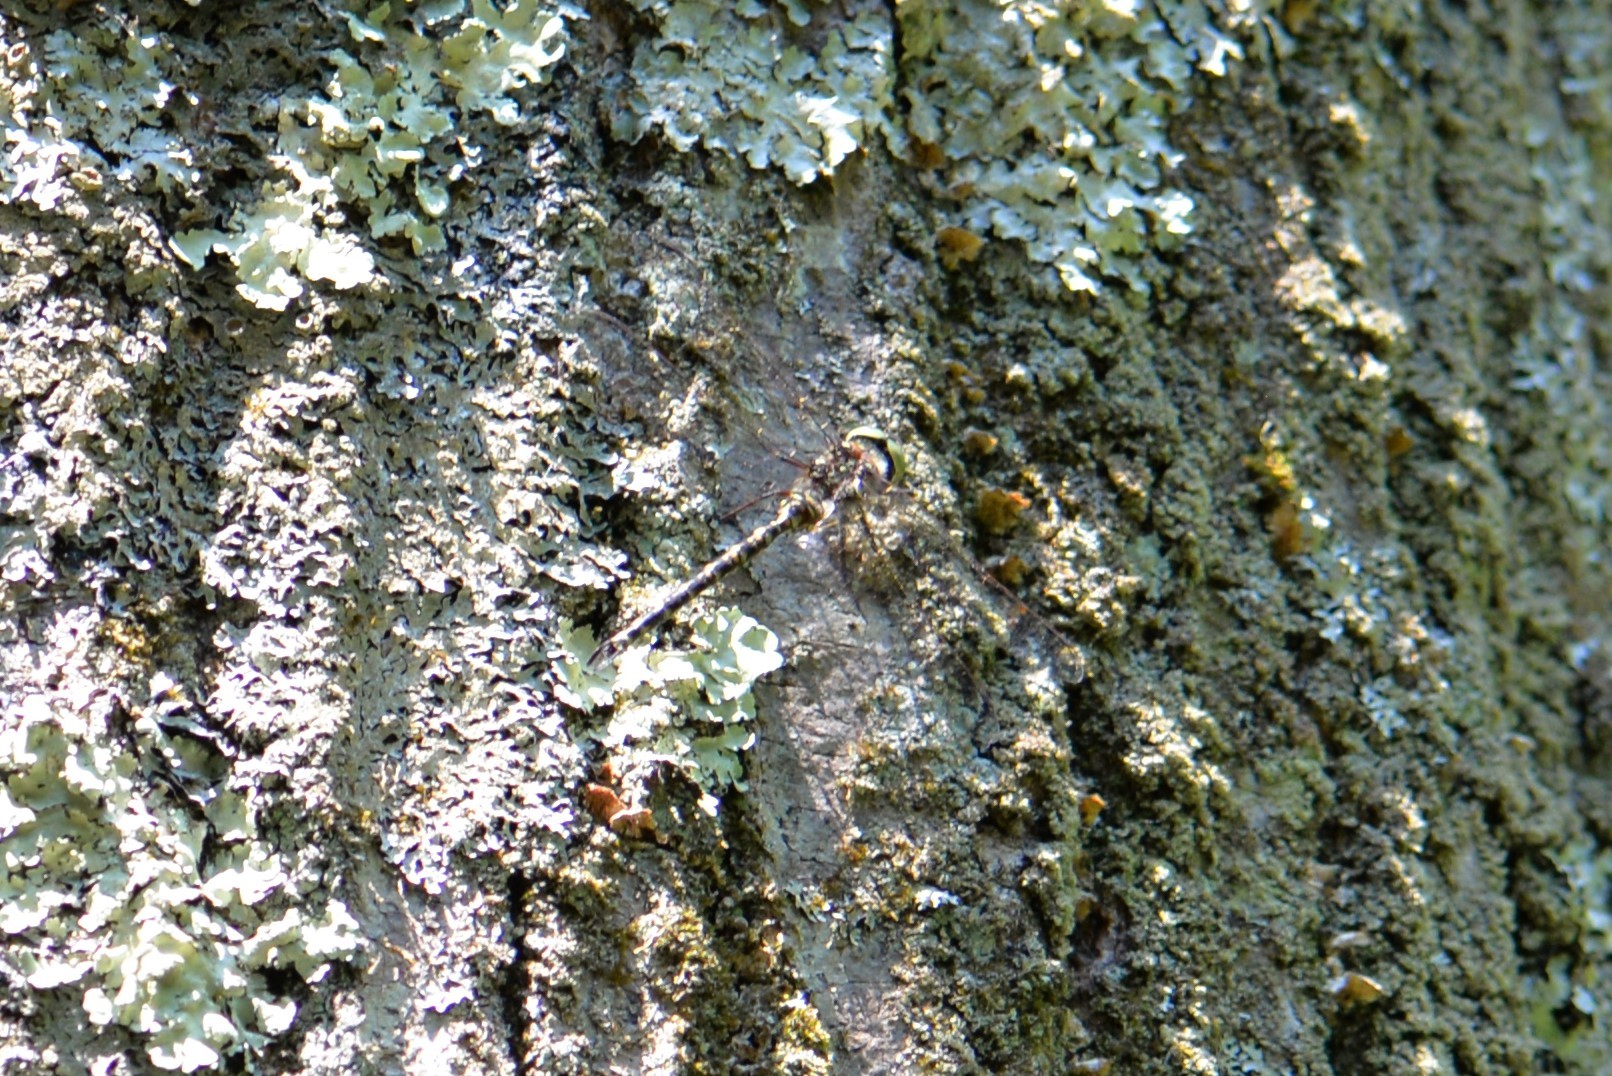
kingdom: Animalia
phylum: Arthropoda
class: Insecta
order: Odonata
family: Aeshnidae
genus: Gomphaeschna
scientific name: Gomphaeschna furcillata
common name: Harlequin darner
